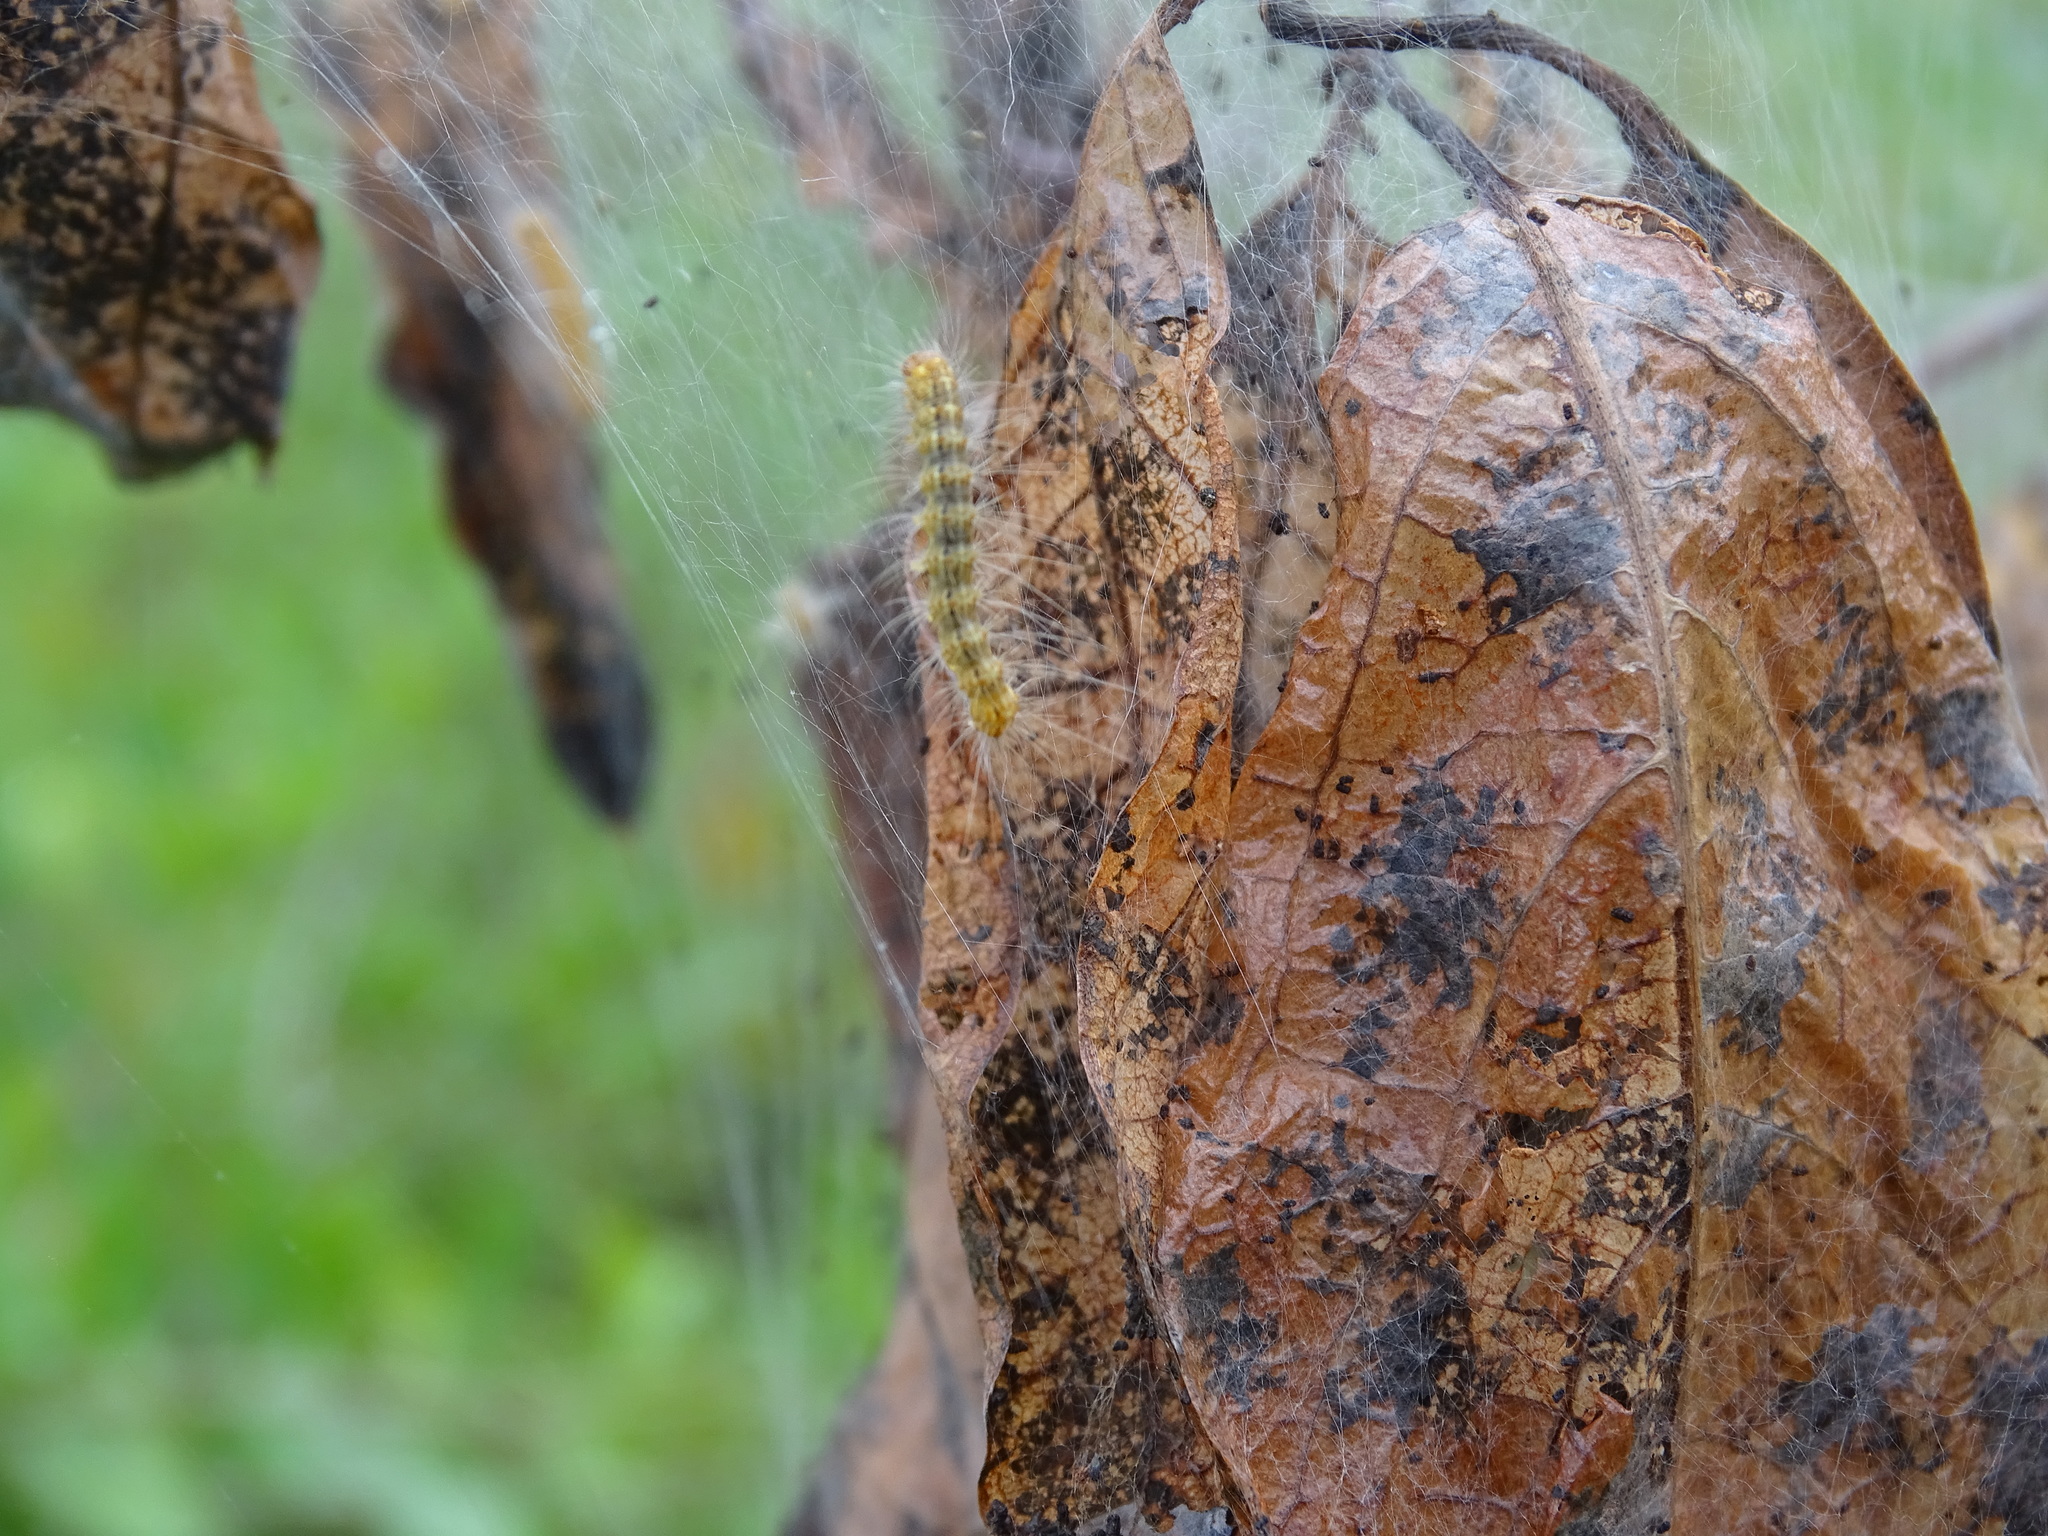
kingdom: Animalia
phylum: Arthropoda
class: Insecta
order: Lepidoptera
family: Erebidae
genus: Hyphantria
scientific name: Hyphantria cunea
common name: American white moth
